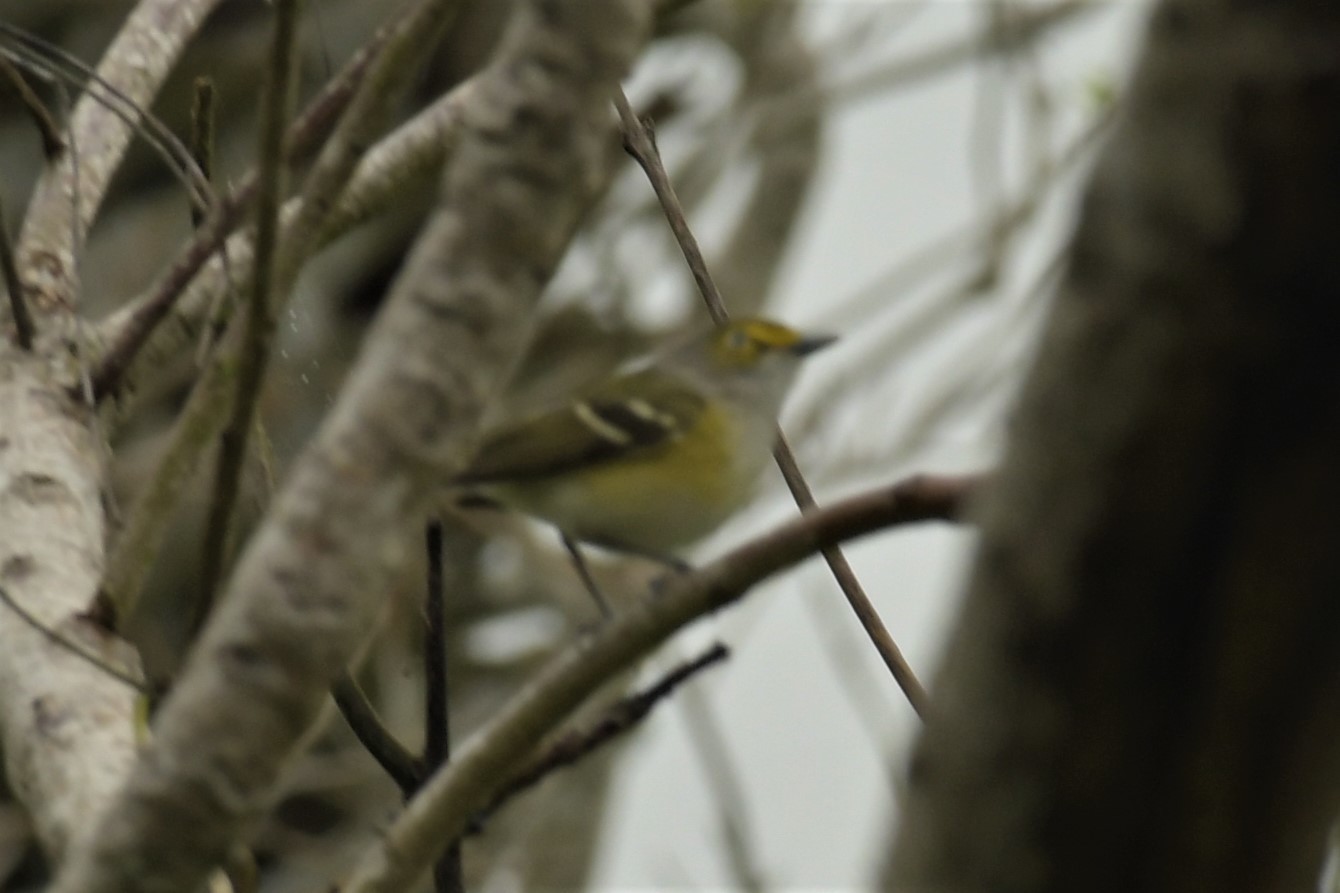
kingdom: Animalia
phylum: Chordata
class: Aves
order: Passeriformes
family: Vireonidae
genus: Vireo
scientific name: Vireo griseus
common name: White-eyed vireo
